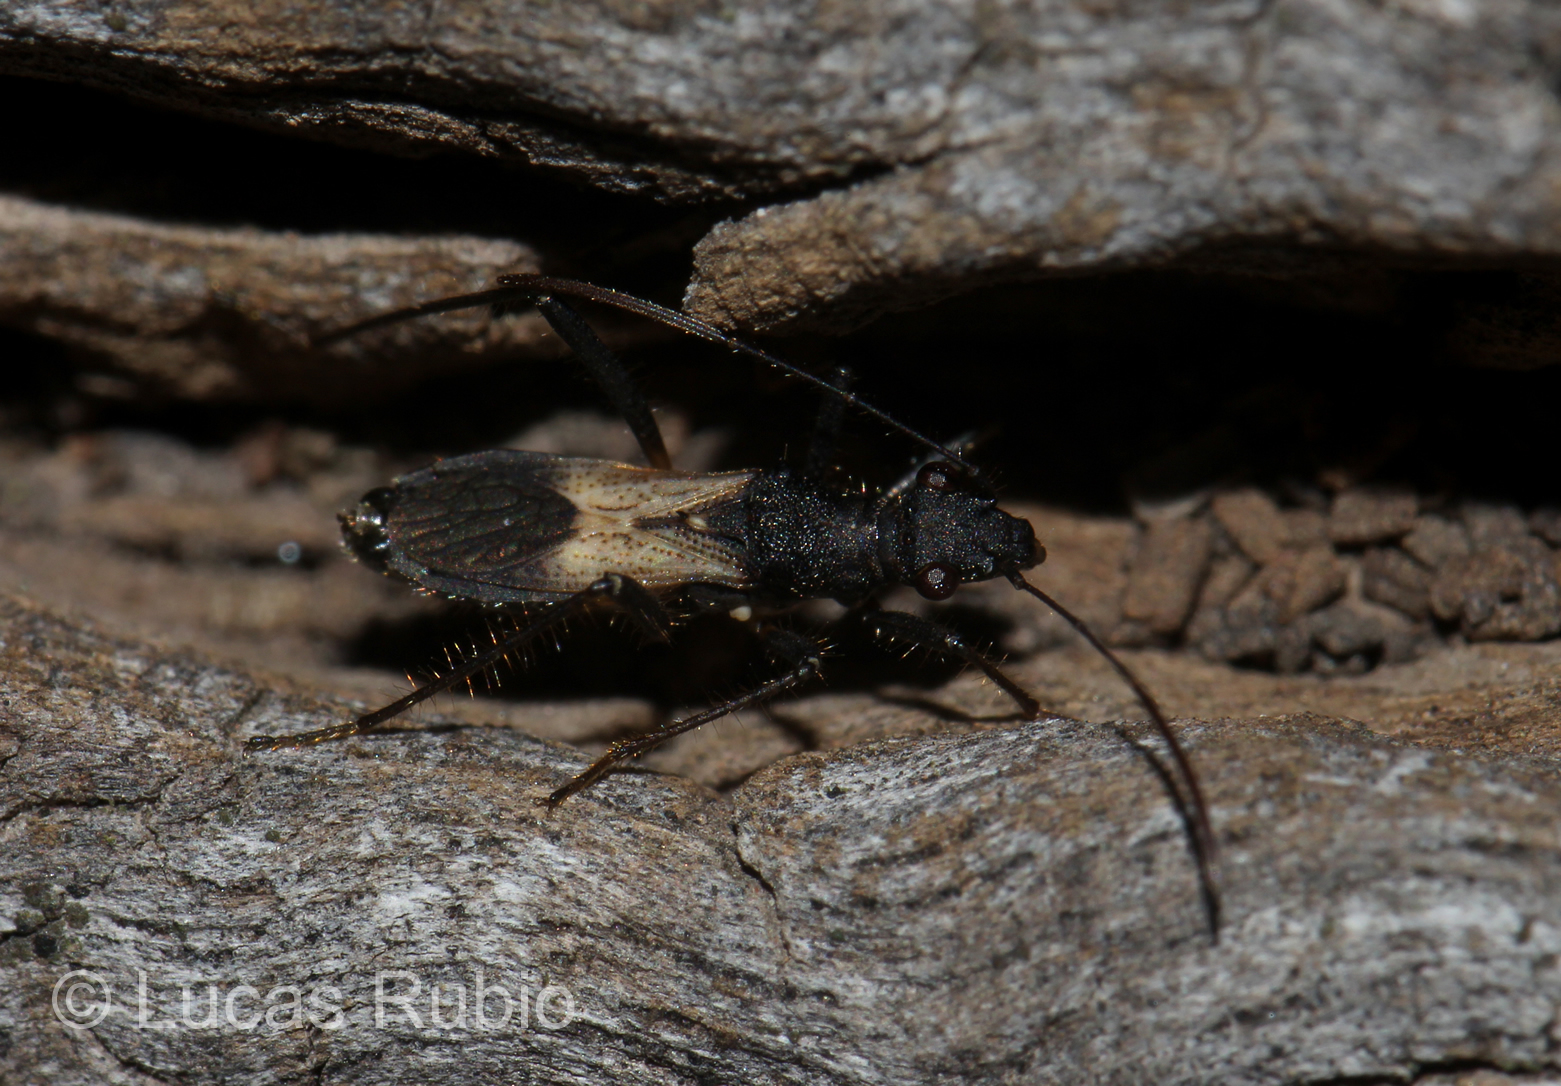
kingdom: Animalia
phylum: Arthropoda
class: Insecta
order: Hemiptera
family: Alydidae
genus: Cydamus
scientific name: Cydamus femoralis
